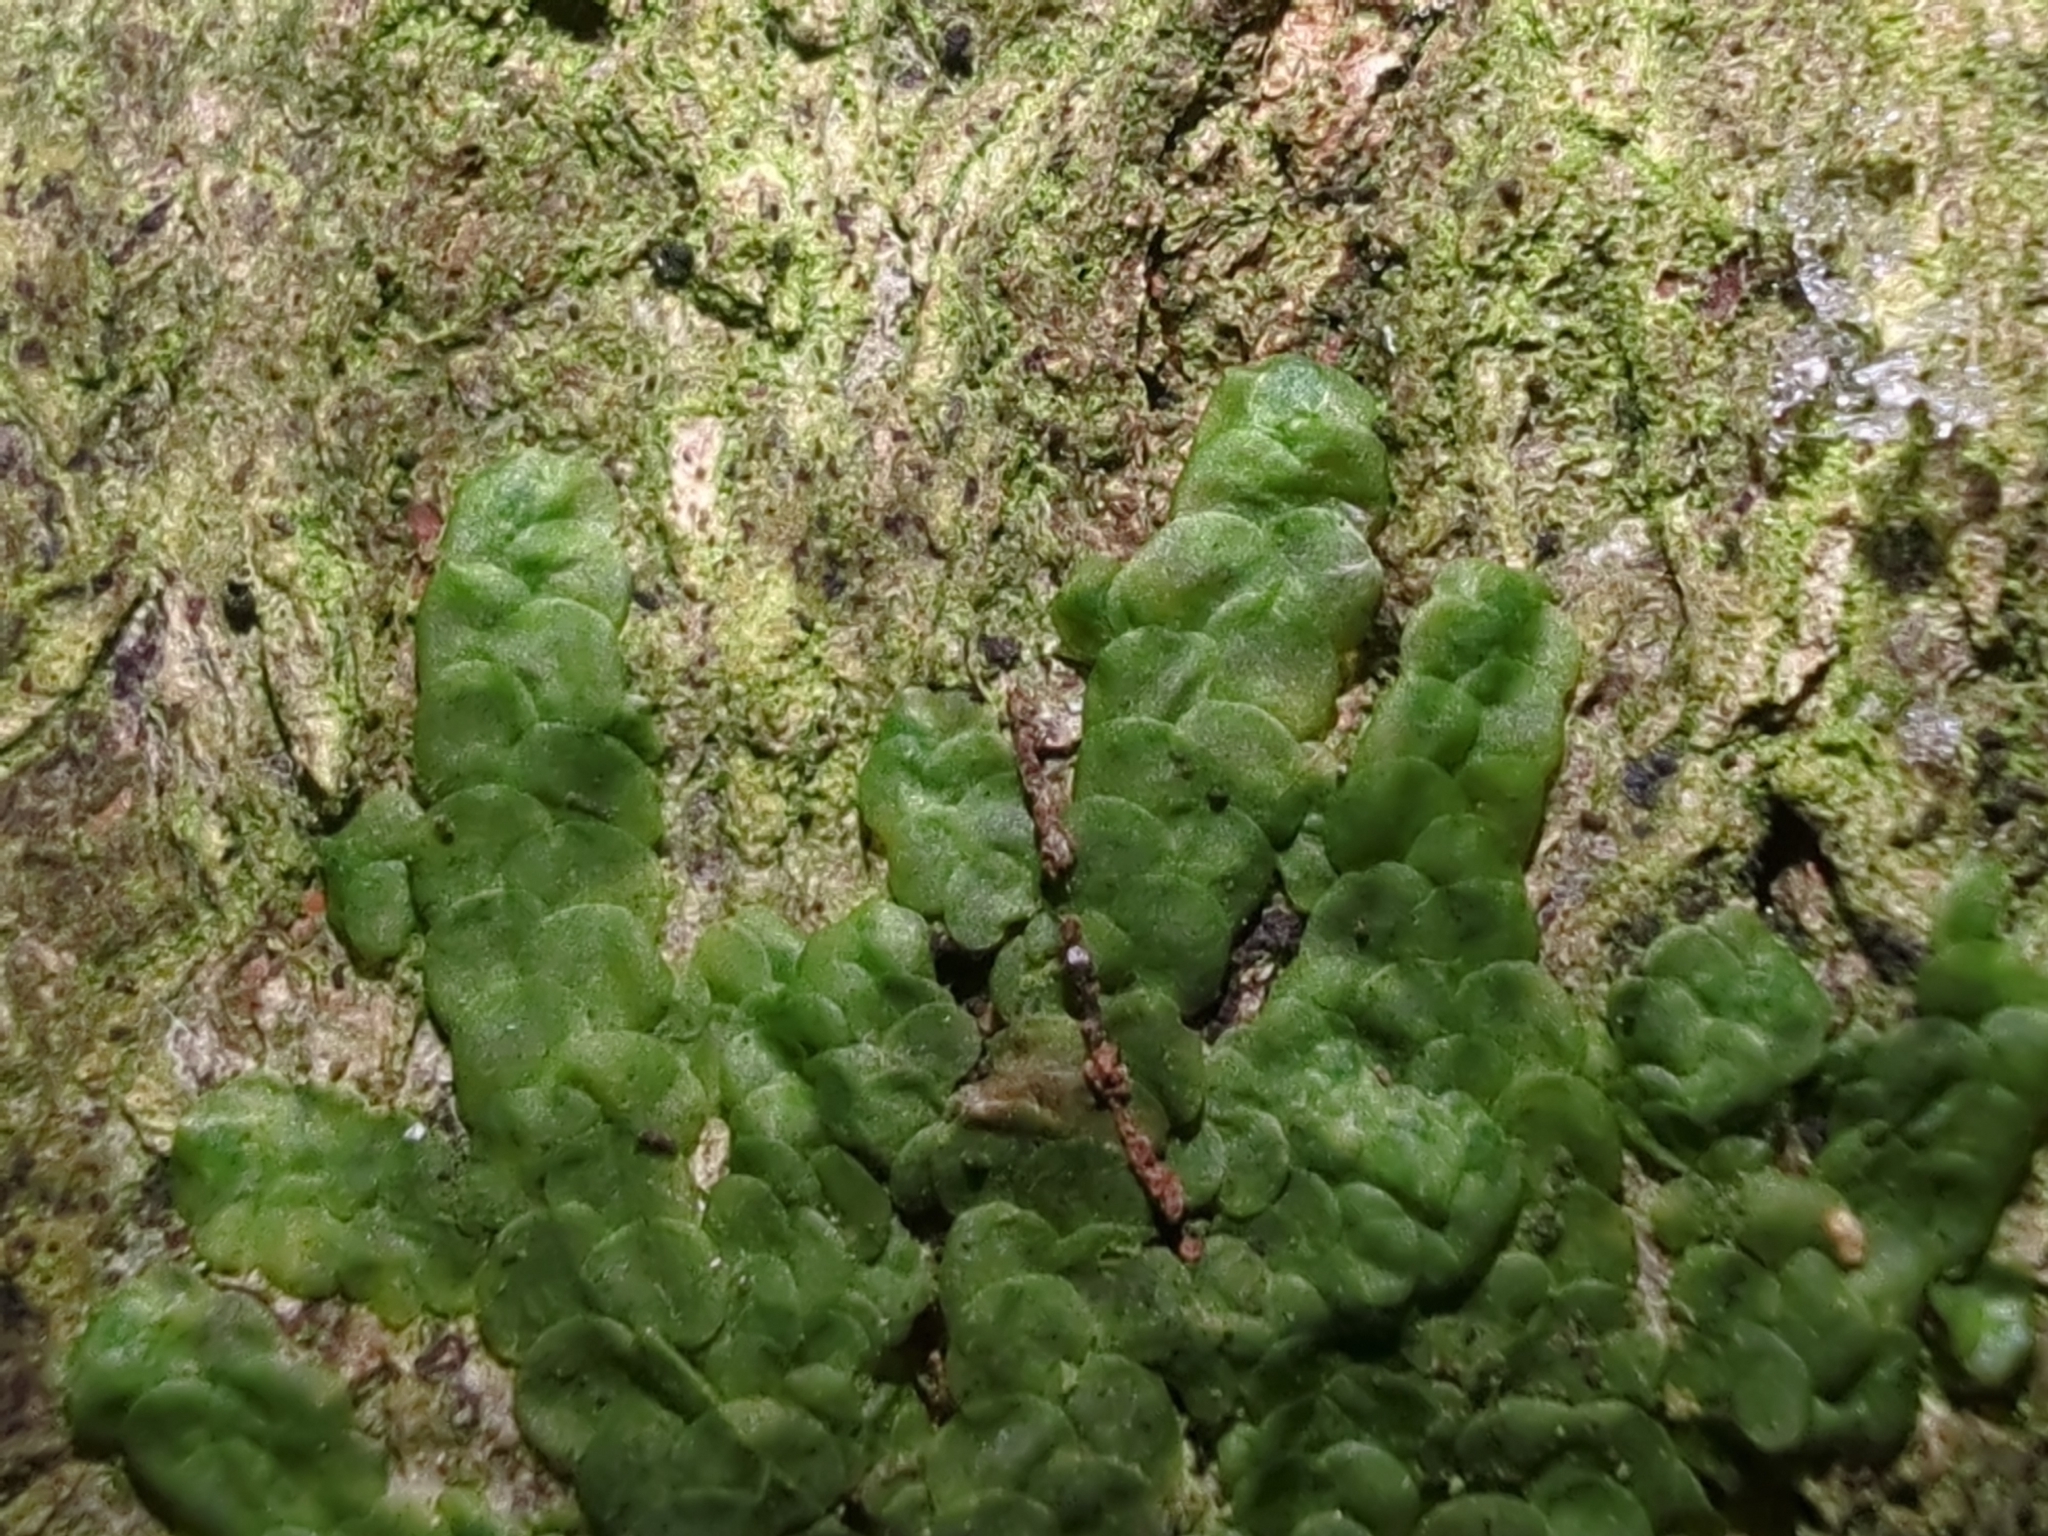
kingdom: Plantae
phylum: Marchantiophyta
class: Jungermanniopsida
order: Porellales
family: Radulaceae
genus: Radula
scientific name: Radula complanata
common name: Flat-leaved scalewort
